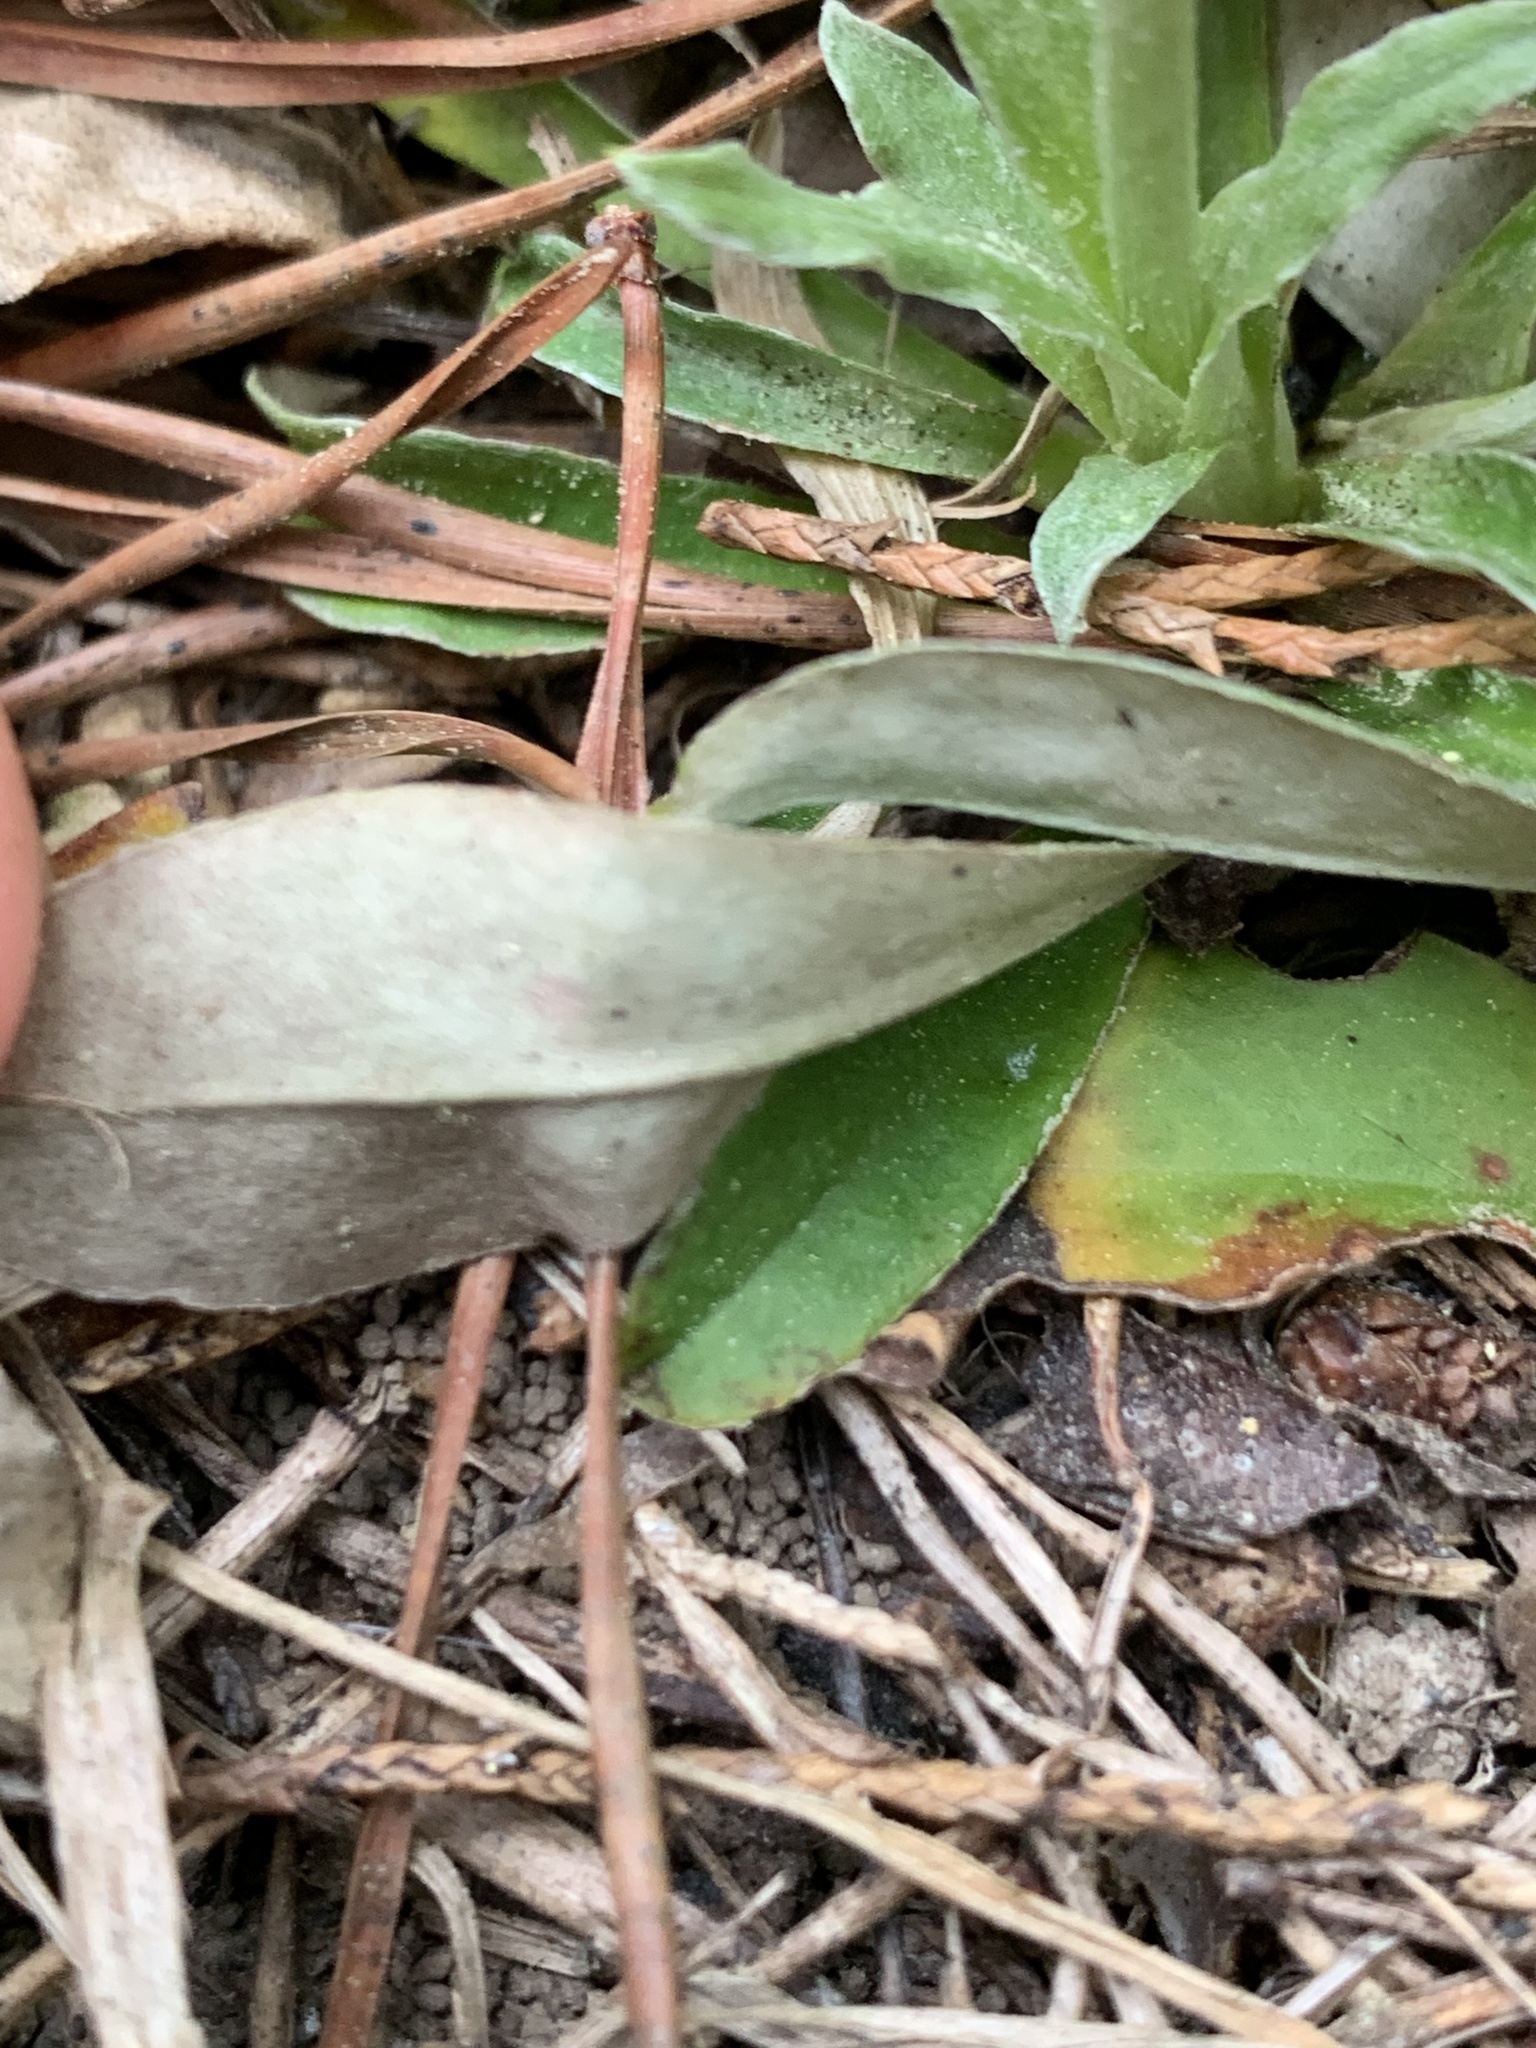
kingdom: Plantae
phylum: Tracheophyta
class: Magnoliopsida
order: Asterales
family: Asteraceae
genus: Antennaria
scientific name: Antennaria plantaginifolia
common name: Plantain-leaved pussytoes
